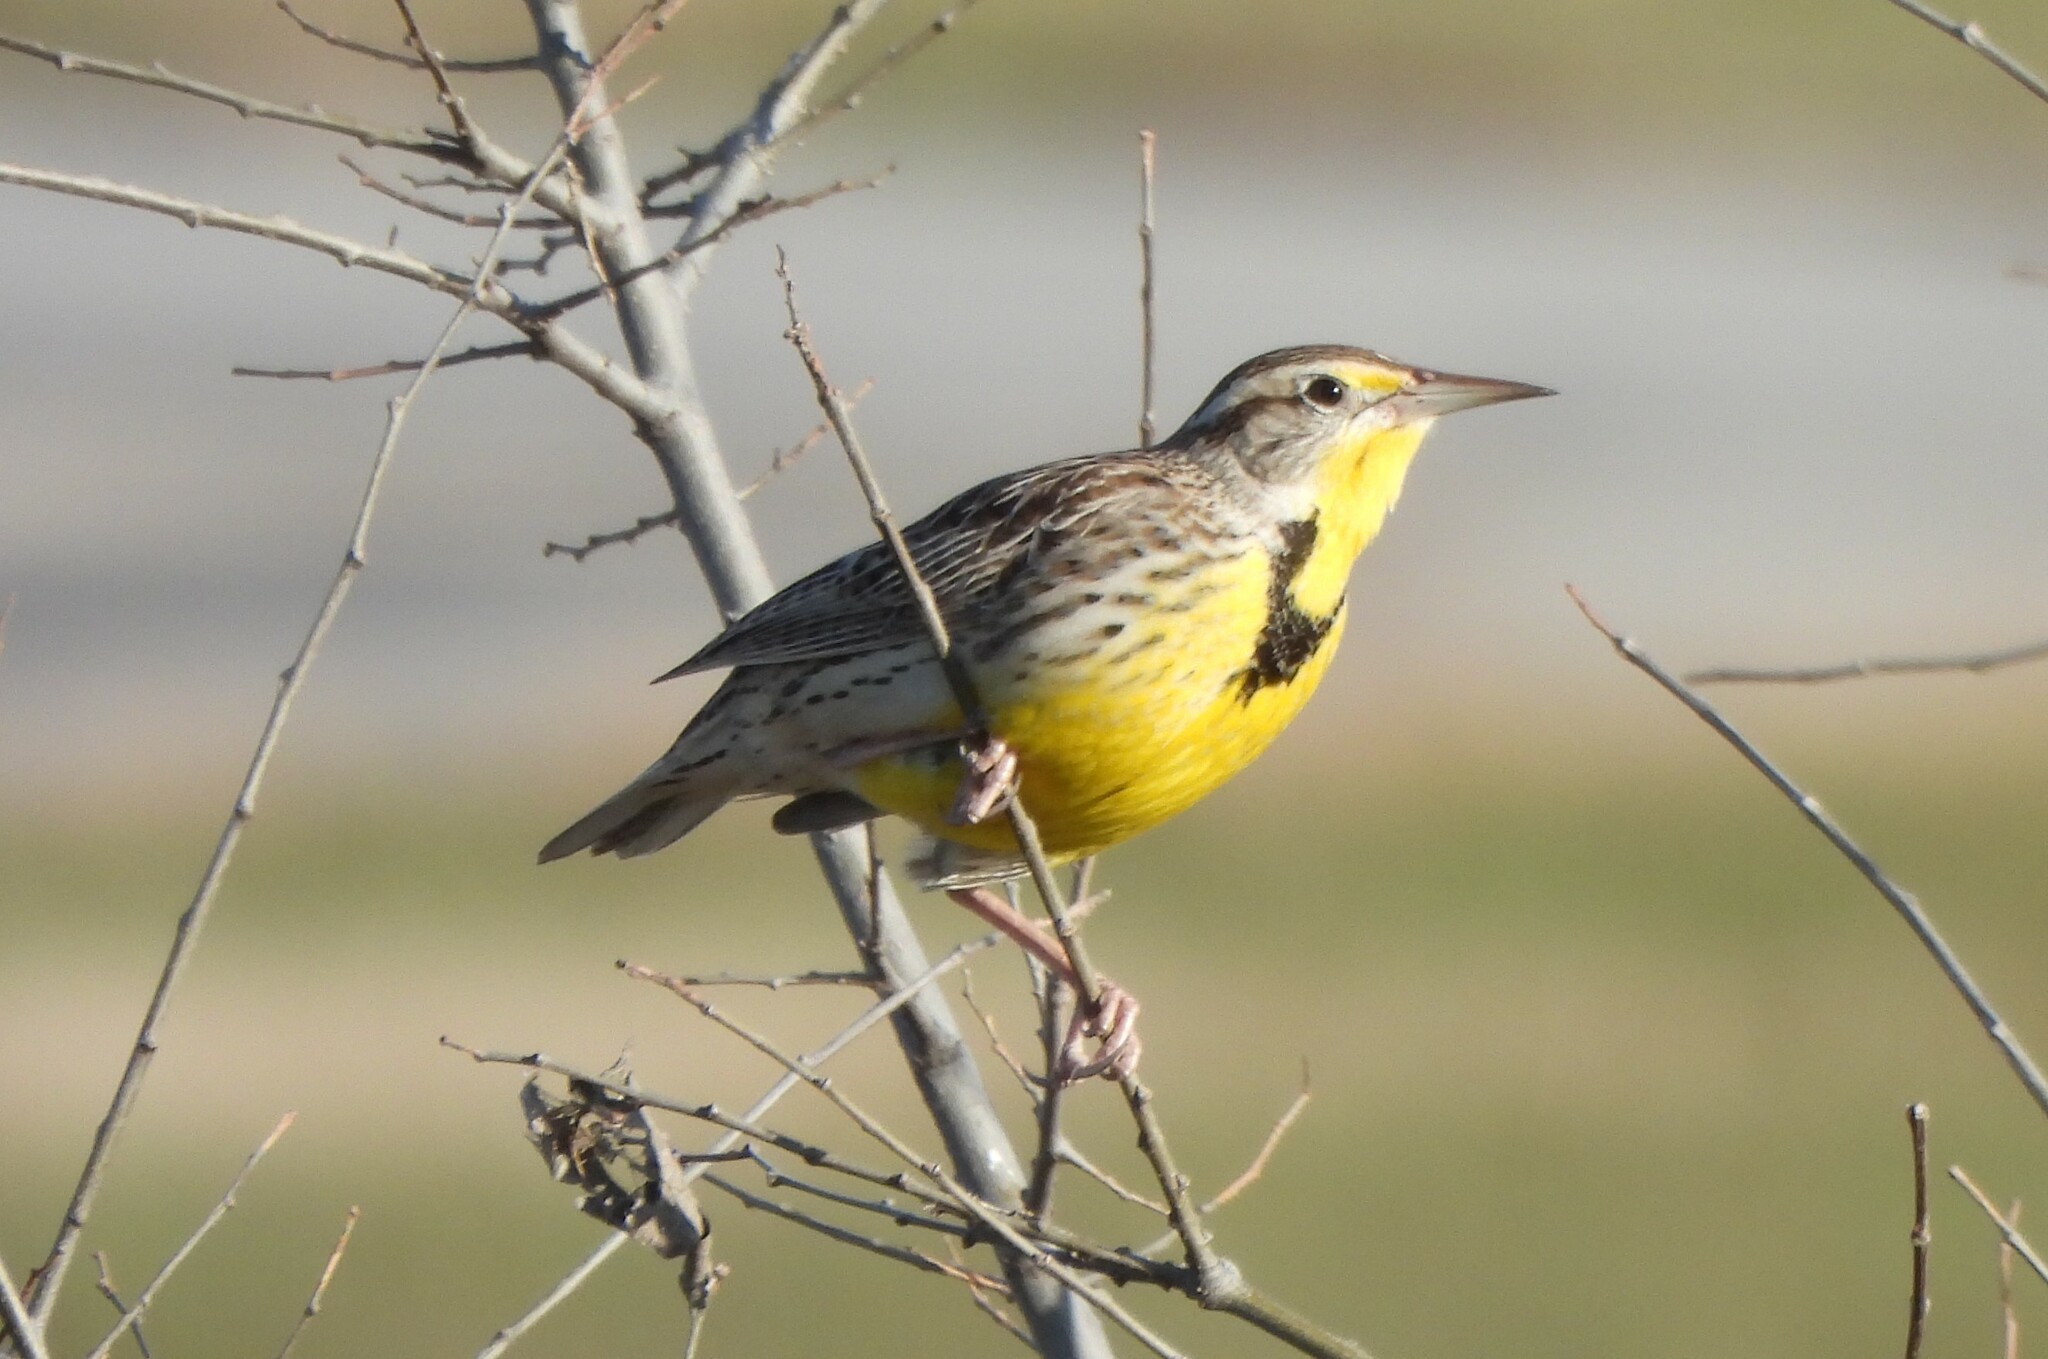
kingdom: Animalia
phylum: Chordata
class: Aves
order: Passeriformes
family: Icteridae
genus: Sturnella
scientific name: Sturnella neglecta
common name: Western meadowlark
